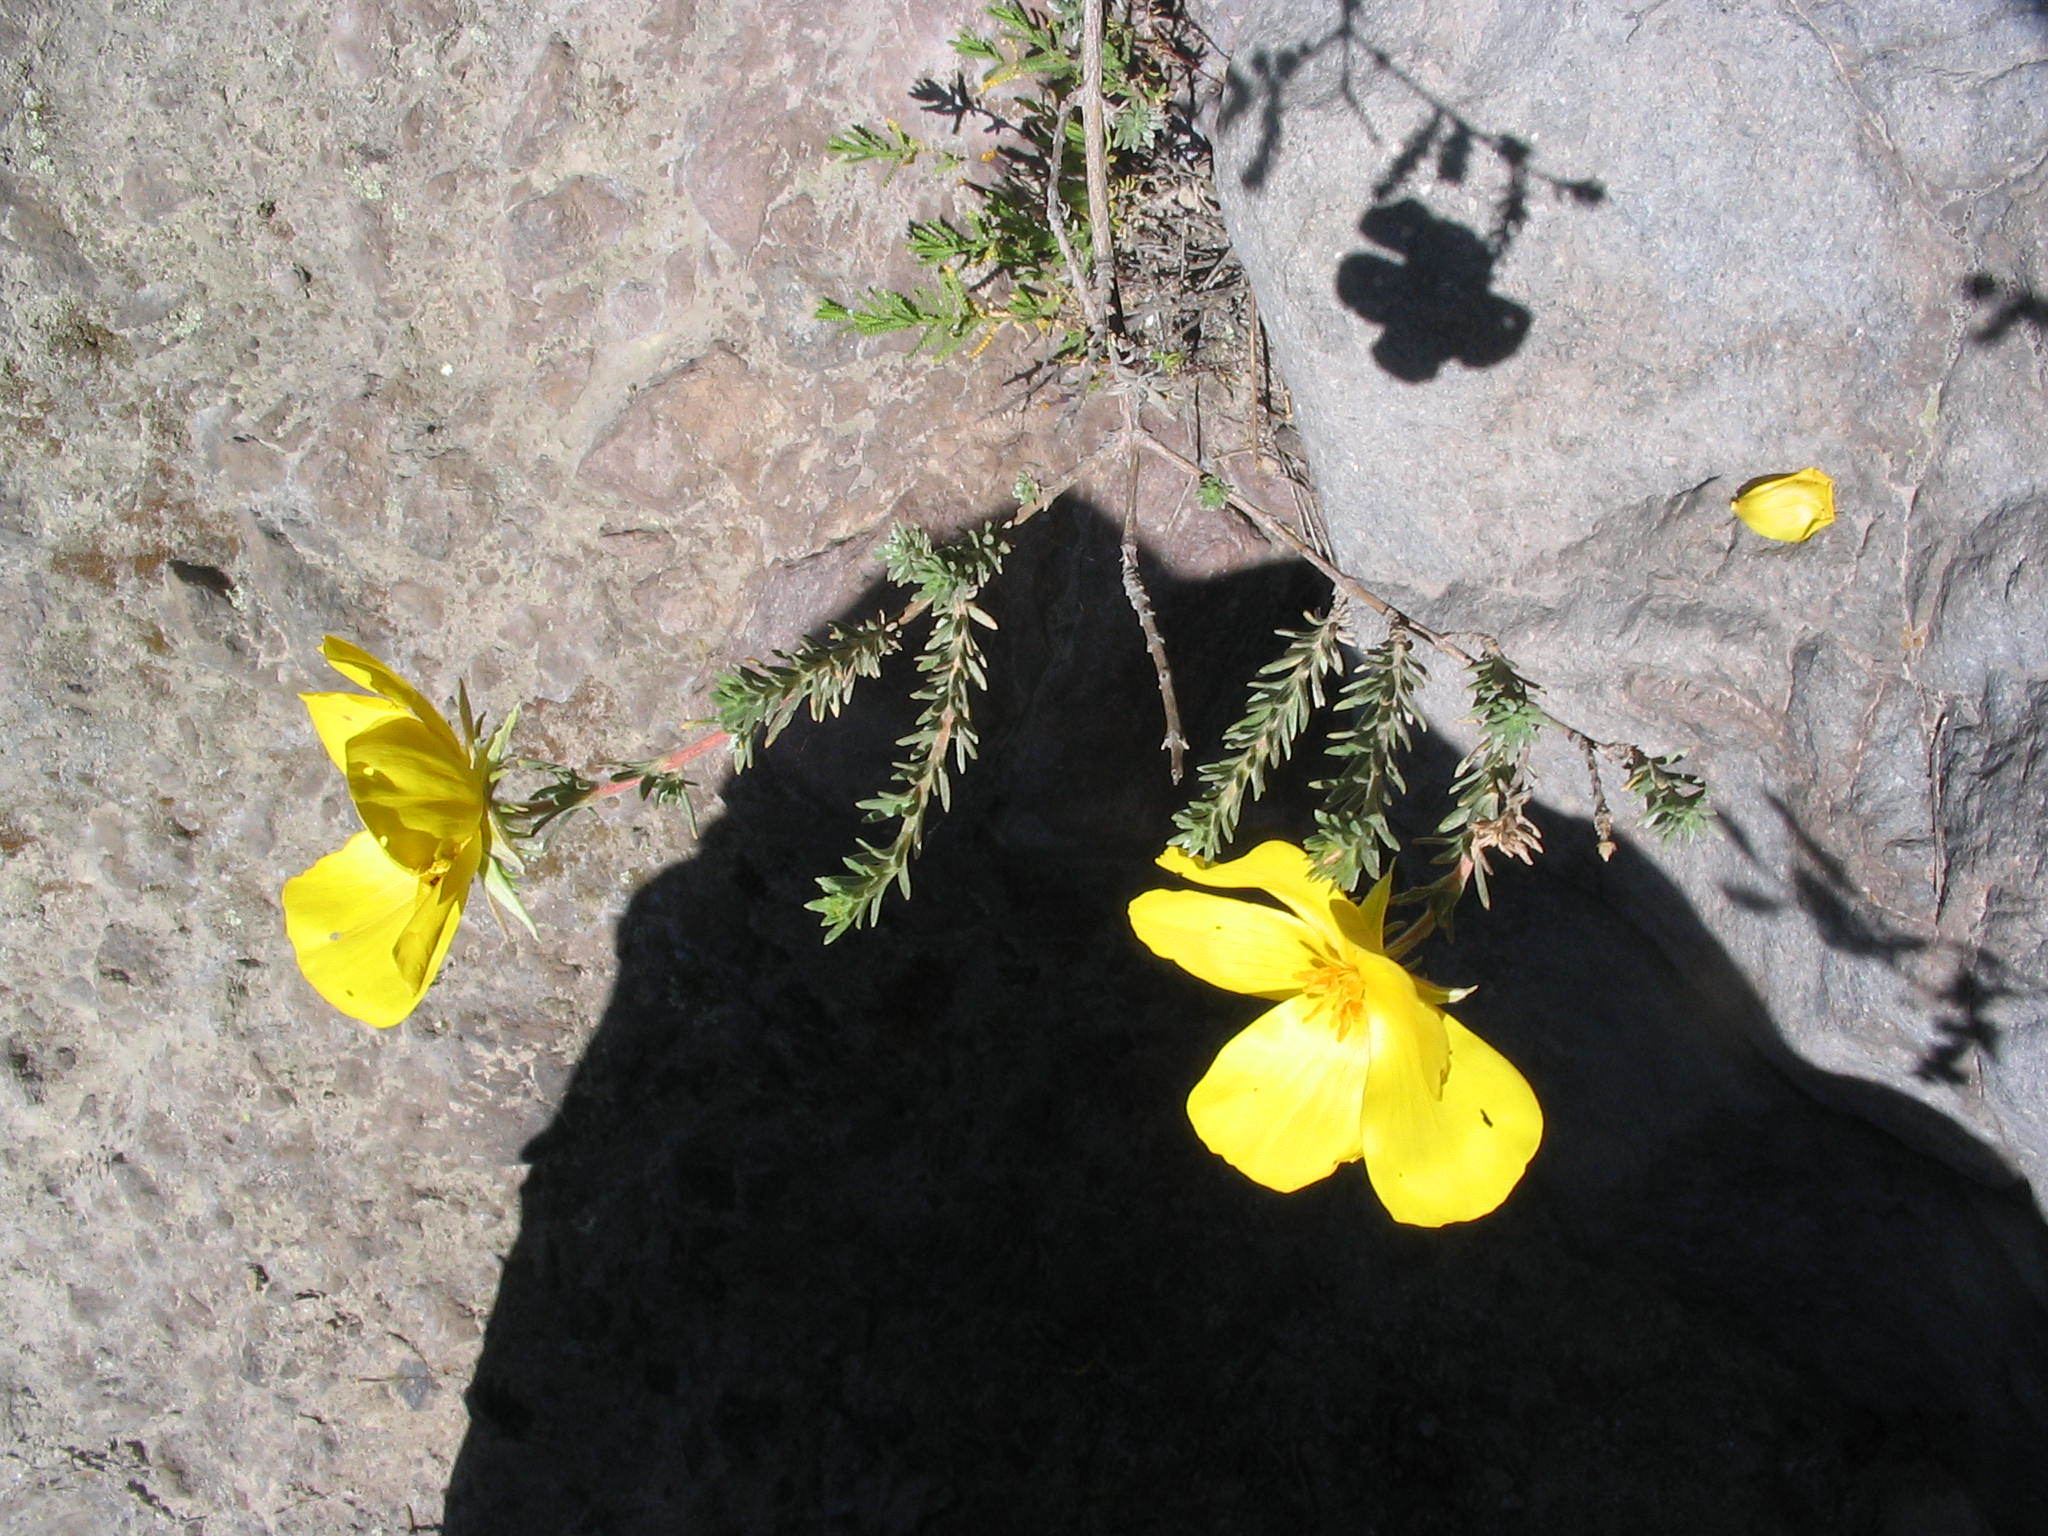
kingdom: Plantae
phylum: Tracheophyta
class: Magnoliopsida
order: Geraniales
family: Vivianiaceae
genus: Balbisia
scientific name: Balbisia verticillata
